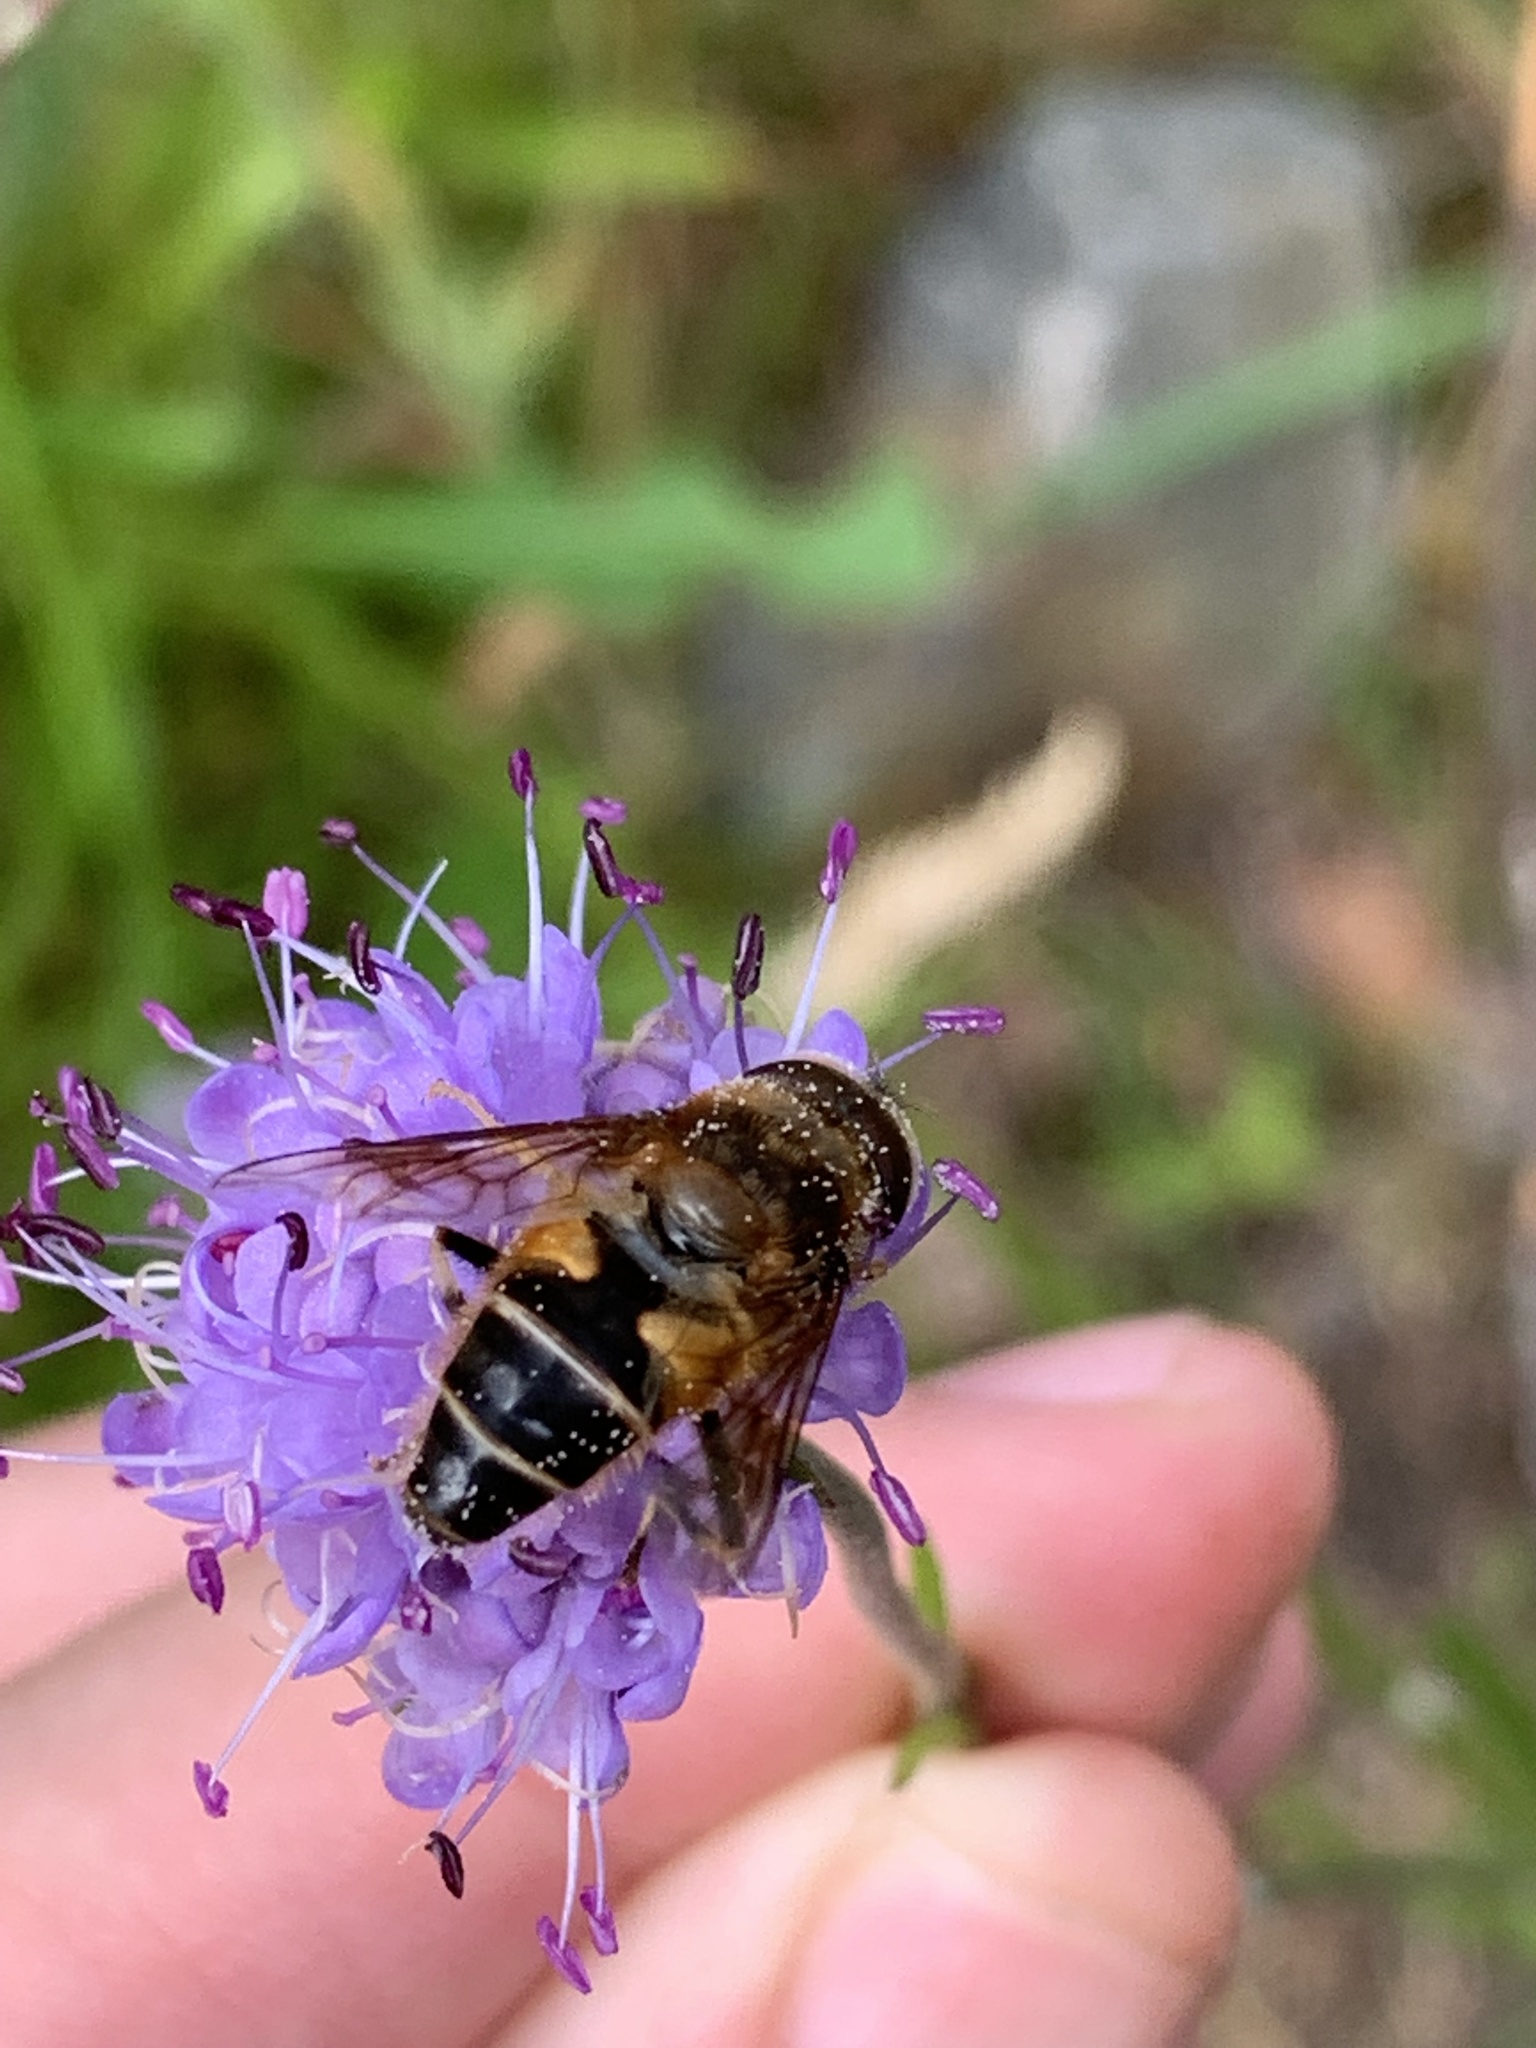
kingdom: Animalia
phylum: Arthropoda
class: Insecta
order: Diptera
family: Syrphidae
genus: Eristalis
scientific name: Eristalis pertinax
